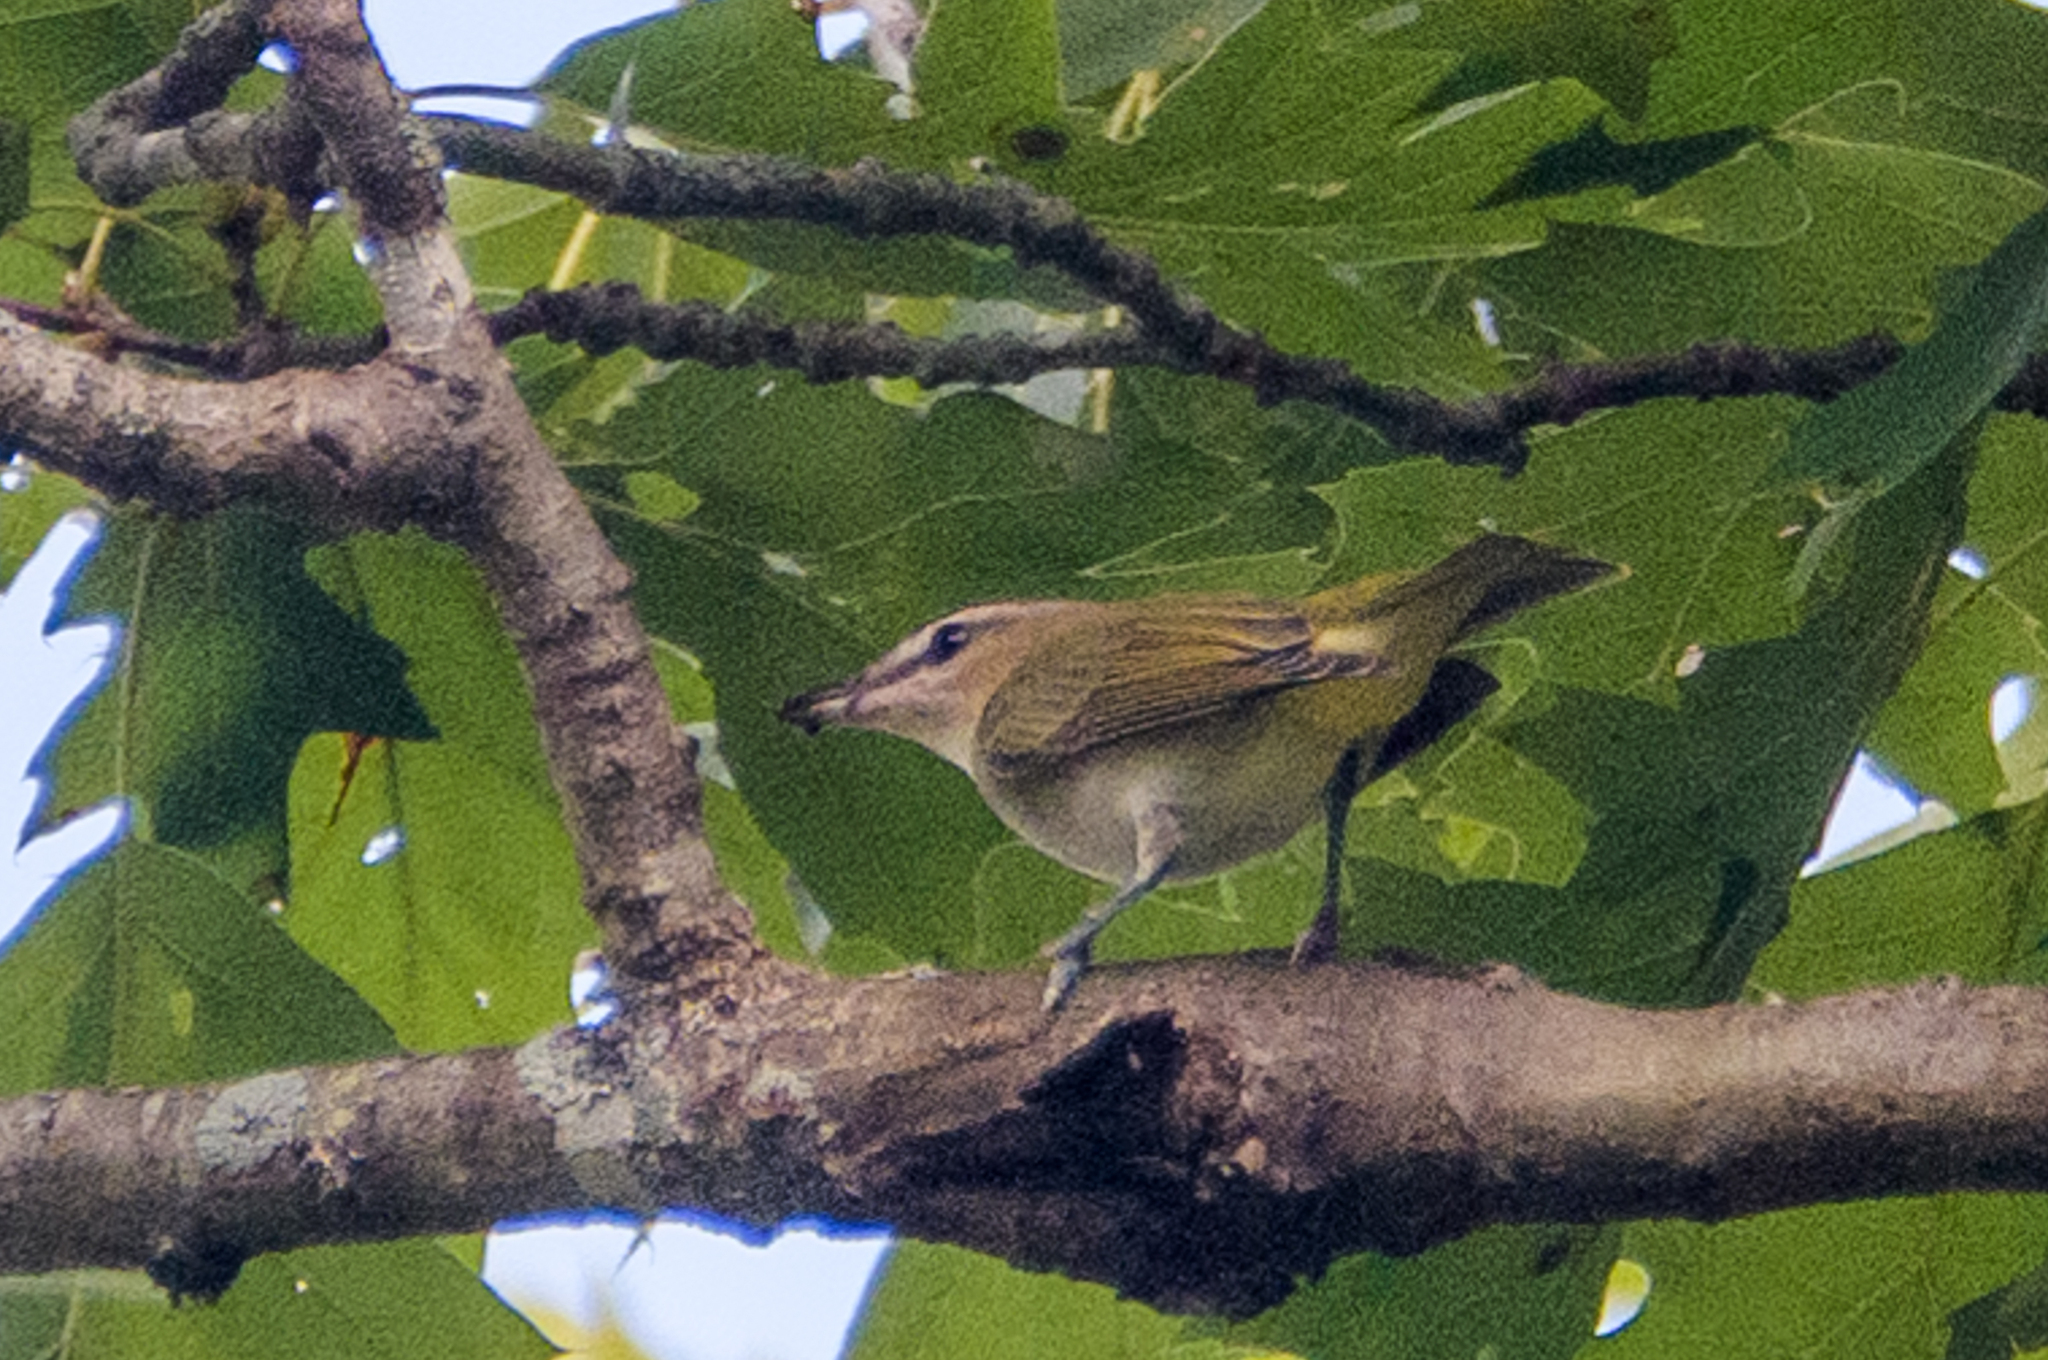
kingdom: Animalia
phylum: Chordata
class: Aves
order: Passeriformes
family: Vireonidae
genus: Vireo
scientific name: Vireo olivaceus
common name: Red-eyed vireo
